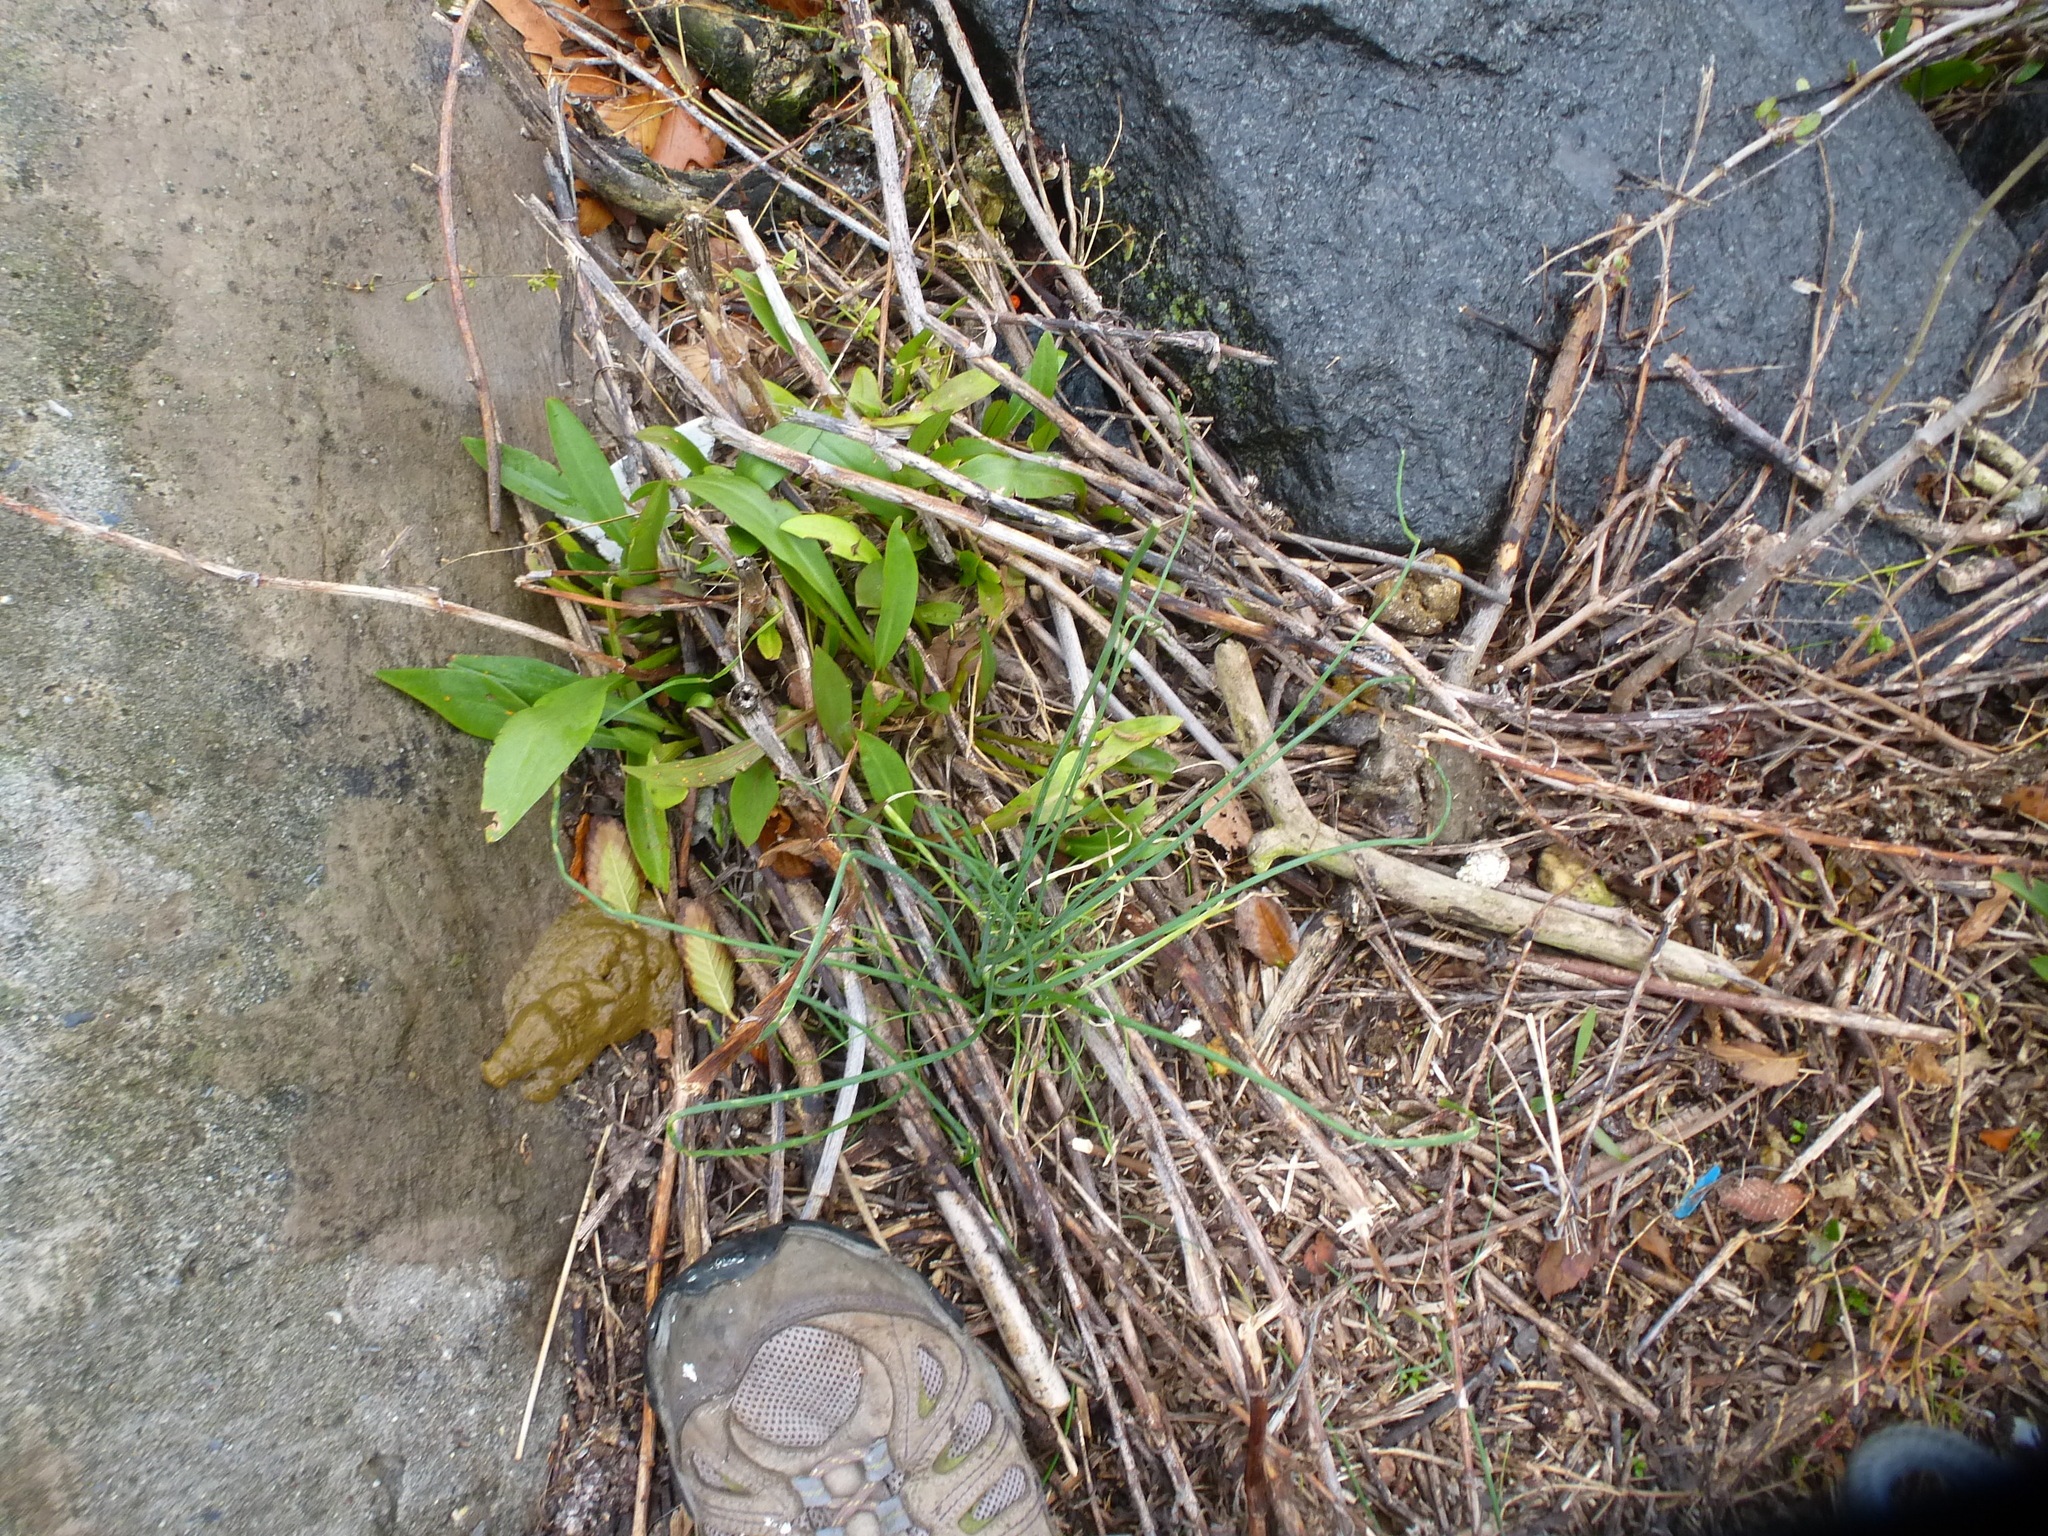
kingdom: Plantae
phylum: Tracheophyta
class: Magnoliopsida
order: Asterales
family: Asteraceae
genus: Solidago
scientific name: Solidago sempervirens
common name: Salt-marsh goldenrod
